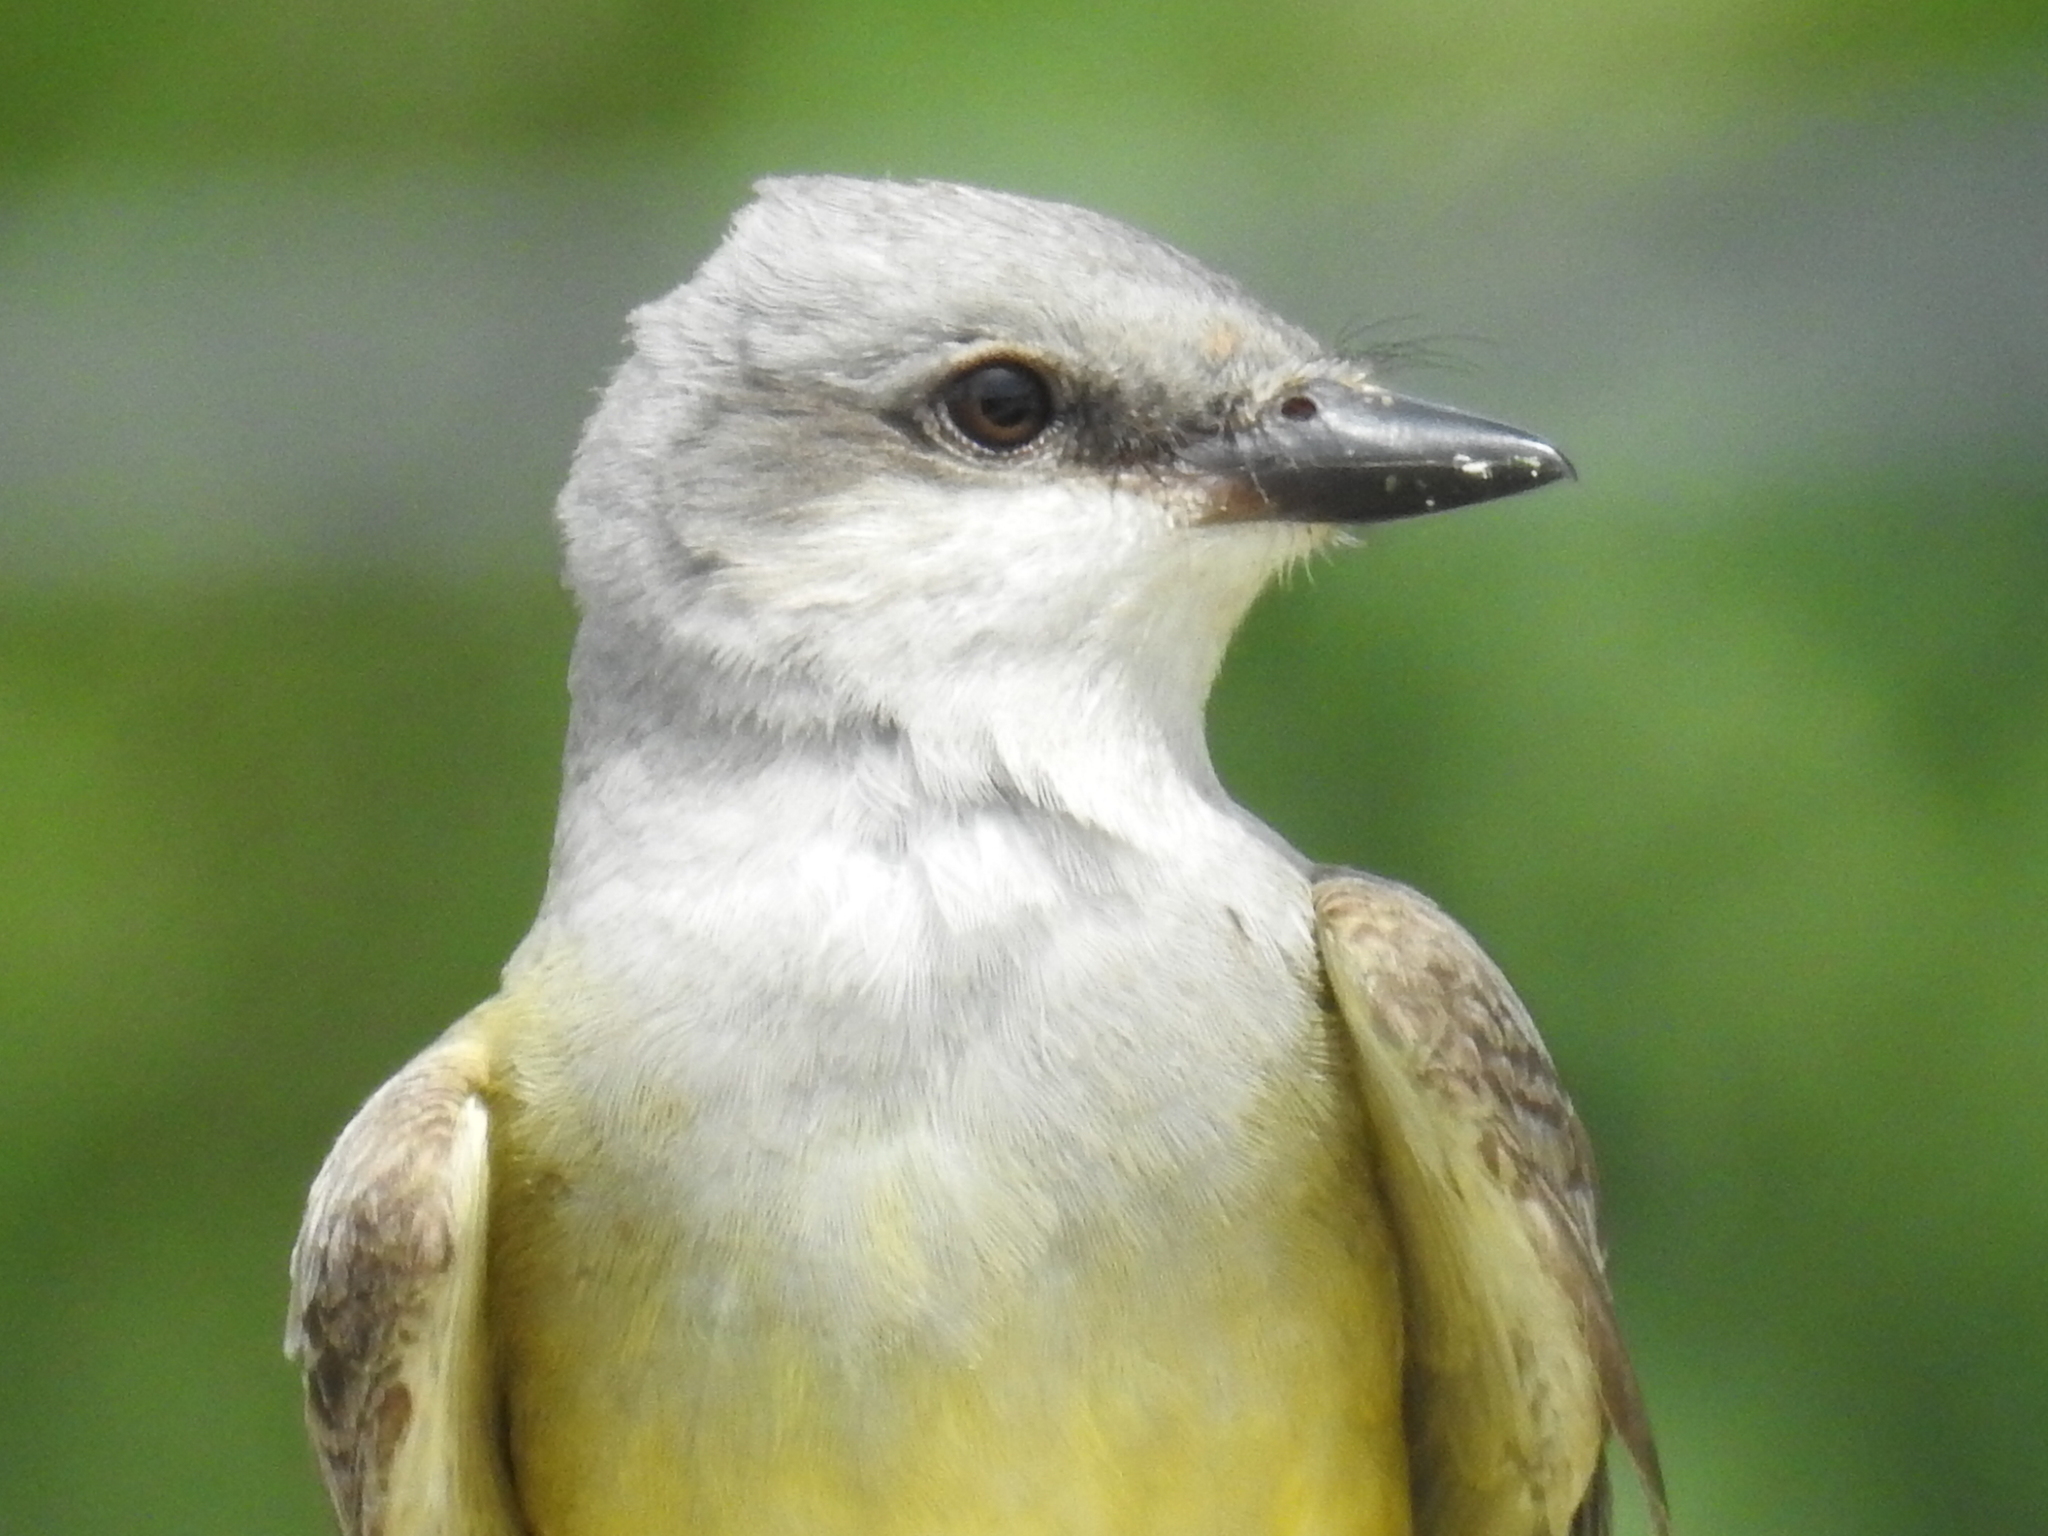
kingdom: Animalia
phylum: Chordata
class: Aves
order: Passeriformes
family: Tyrannidae
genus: Tyrannus
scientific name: Tyrannus verticalis
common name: Western kingbird
